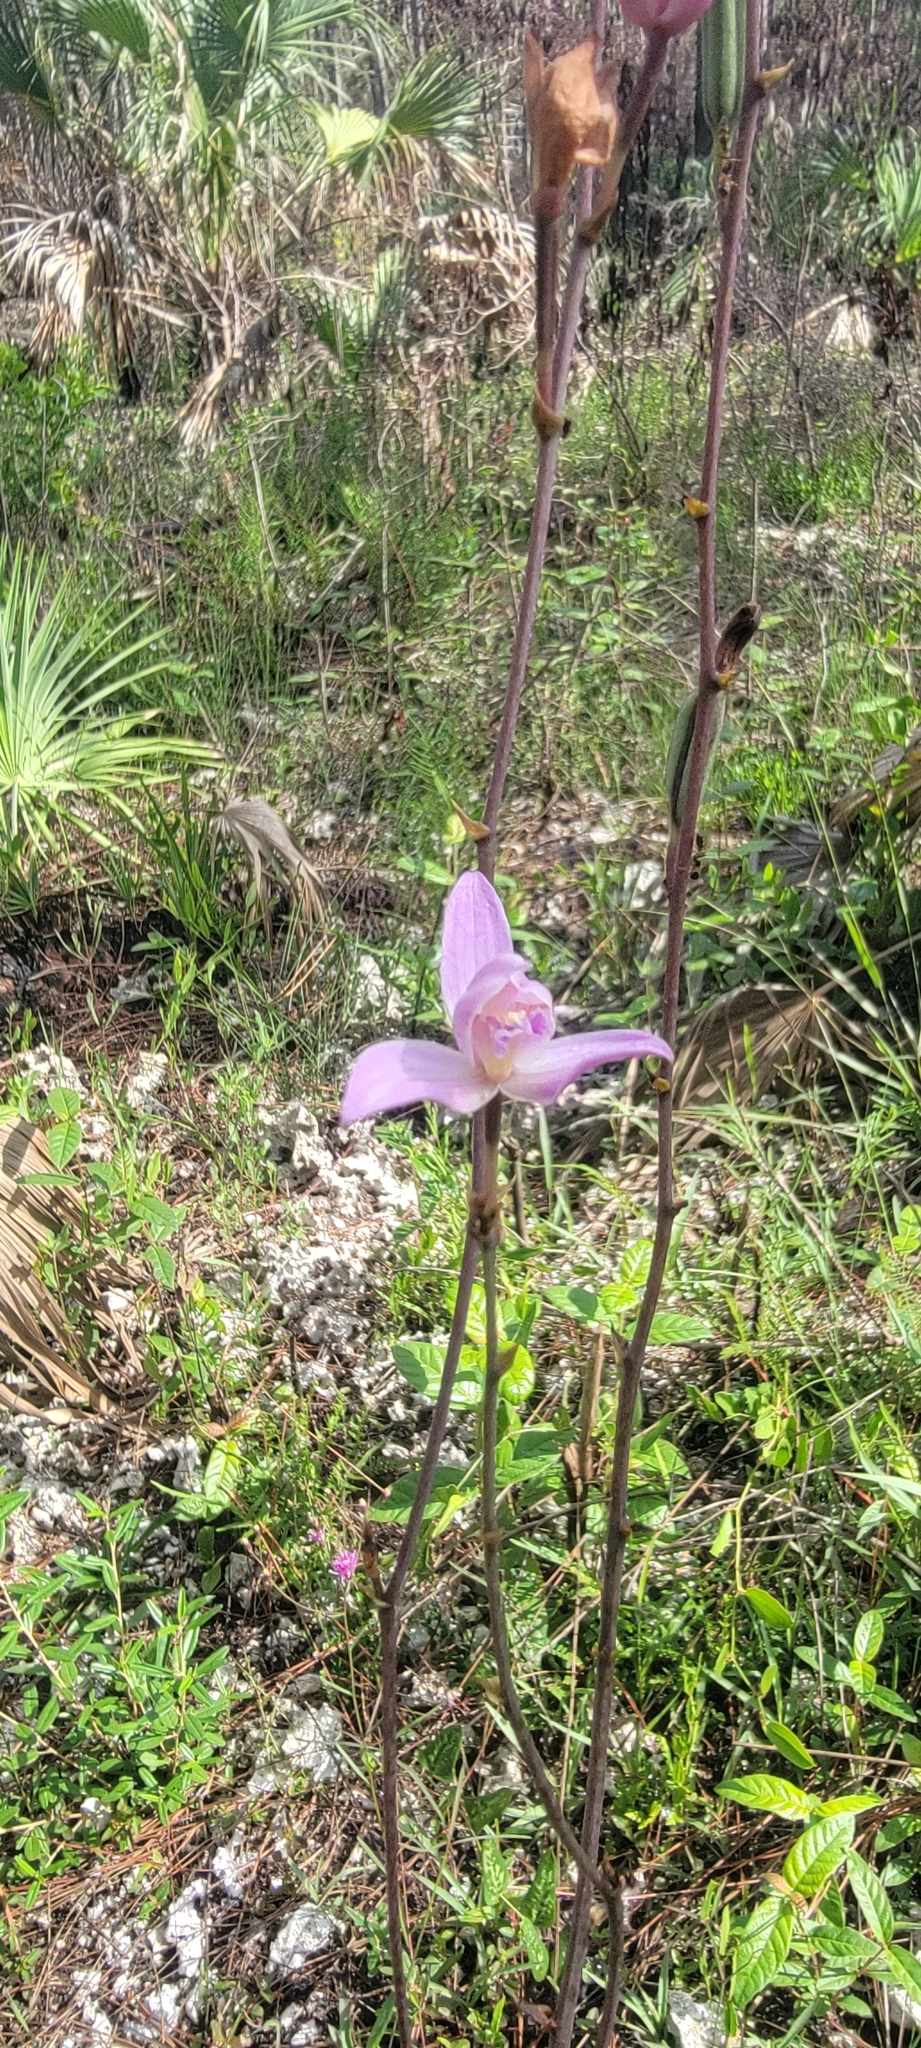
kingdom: Plantae
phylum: Tracheophyta
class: Liliopsida
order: Asparagales
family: Orchidaceae
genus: Bletia
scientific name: Bletia purpurea
